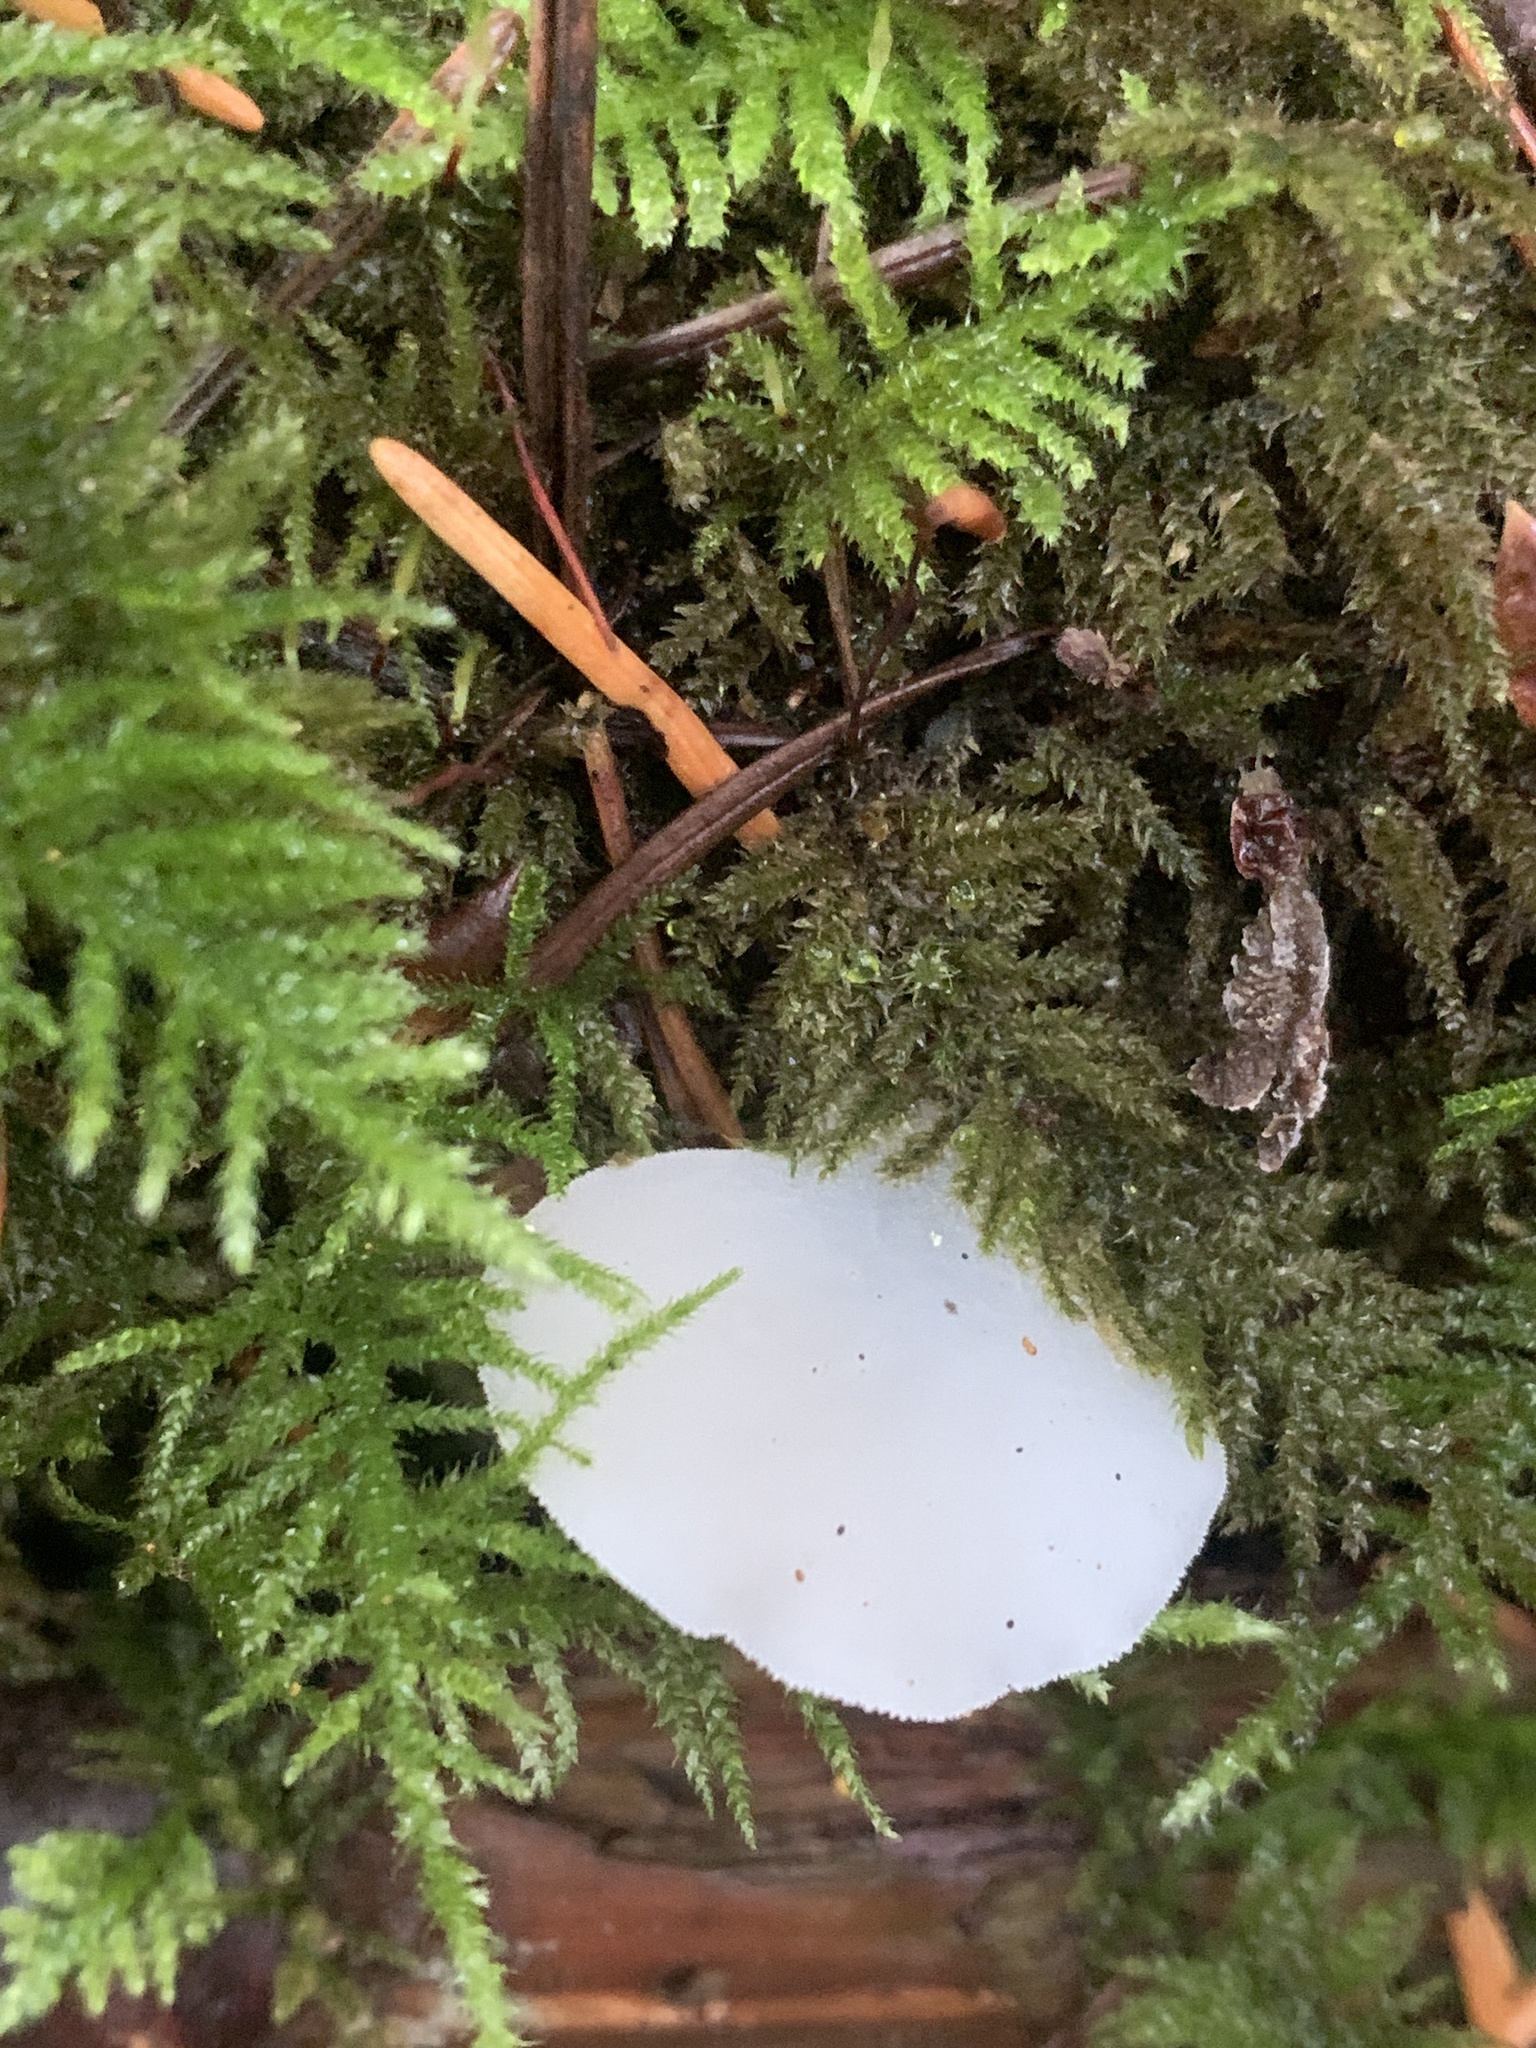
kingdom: Fungi
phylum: Basidiomycota
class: Agaricomycetes
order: Auriculariales
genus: Pseudohydnum
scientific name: Pseudohydnum gelatinosum
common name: Jelly tongue
